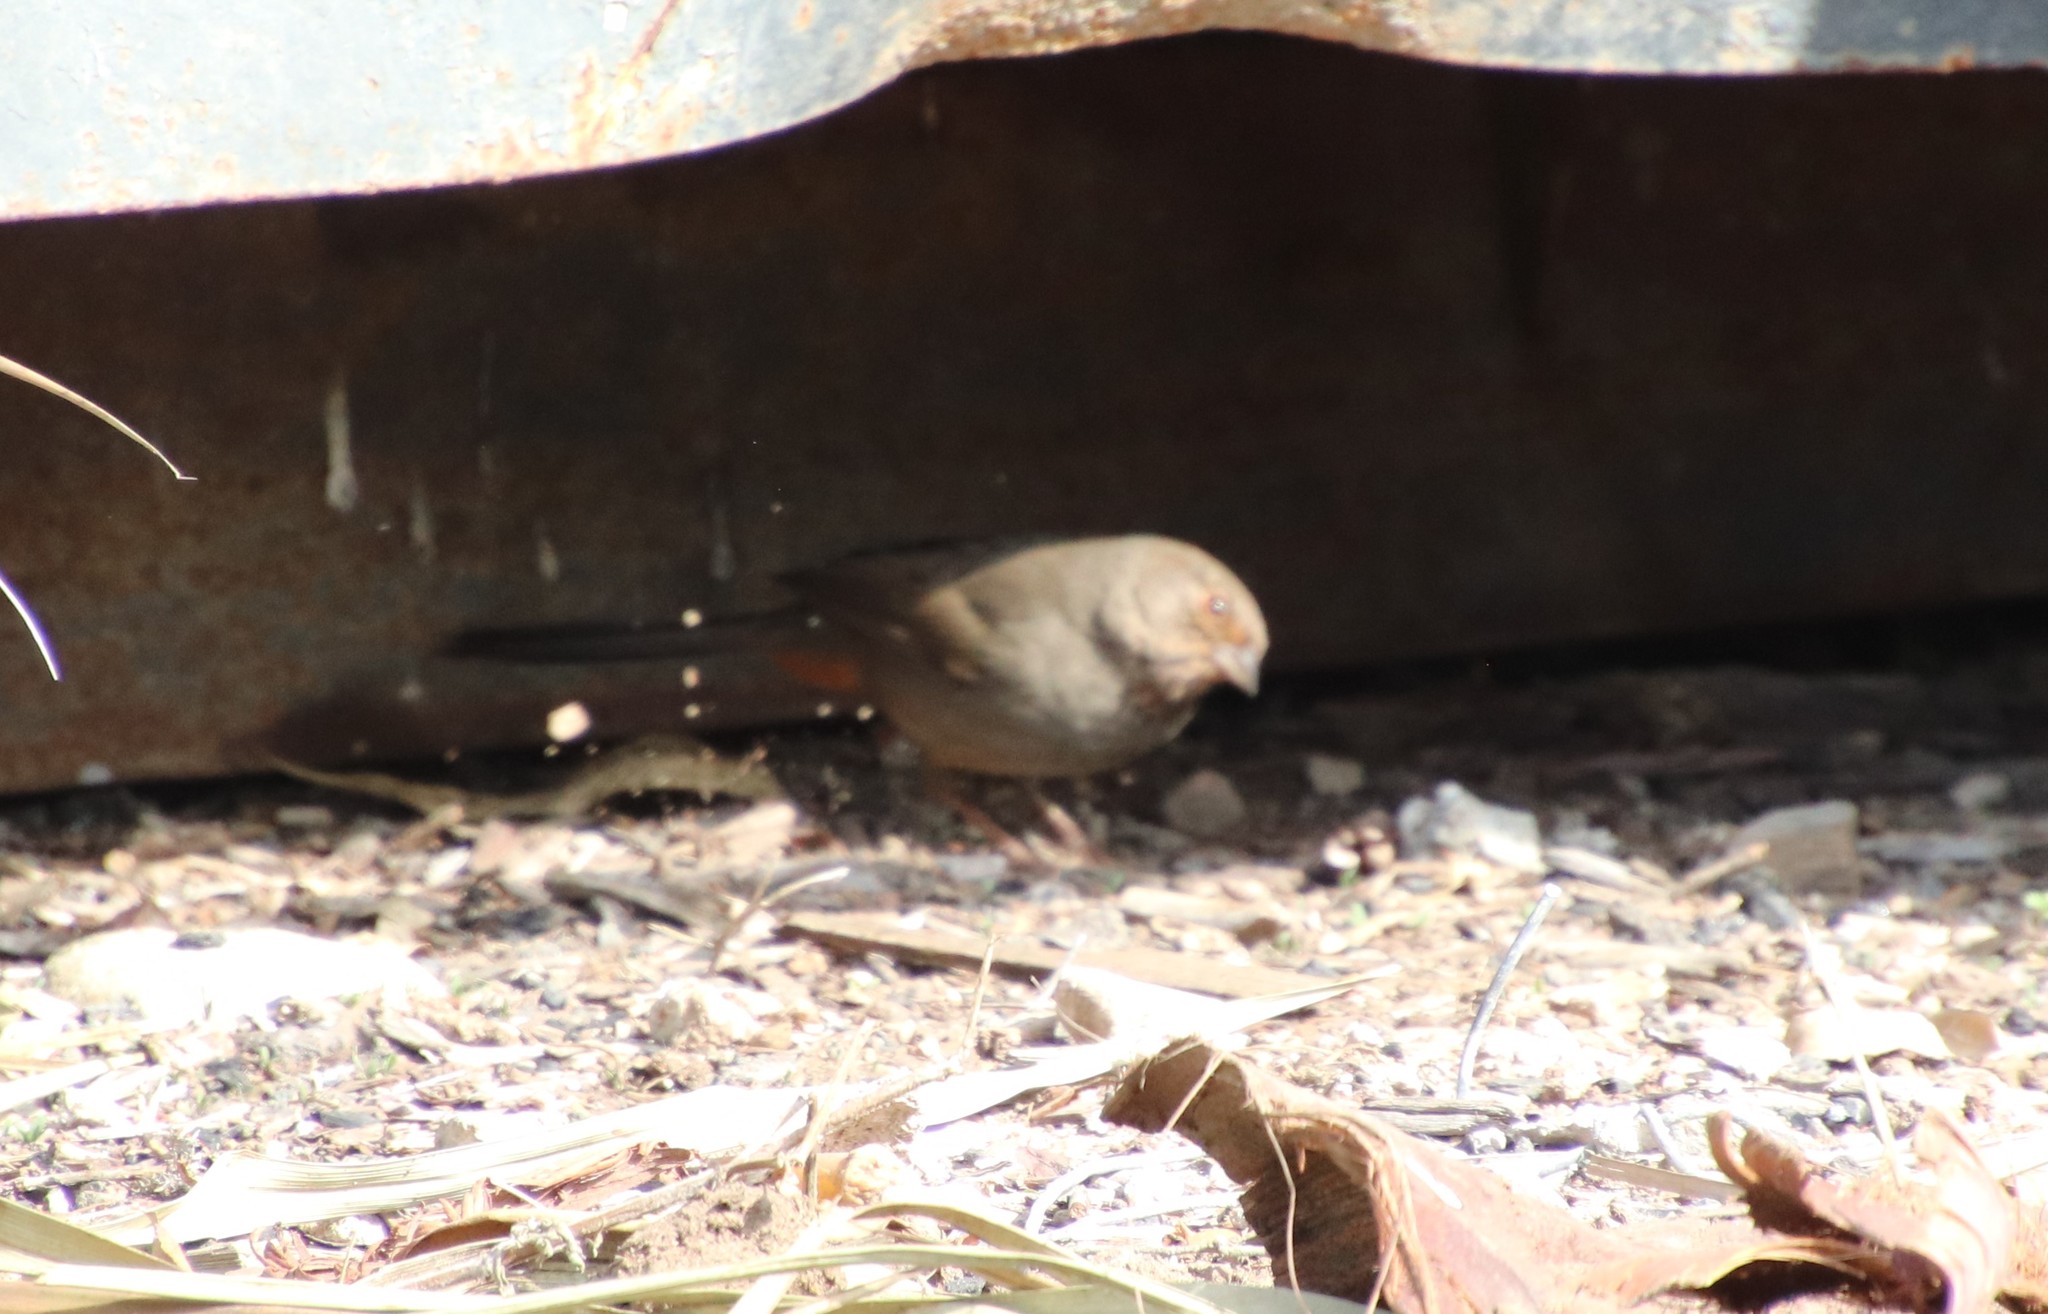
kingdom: Animalia
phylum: Chordata
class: Aves
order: Passeriformes
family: Passerellidae
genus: Melozone
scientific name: Melozone crissalis
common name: California towhee
